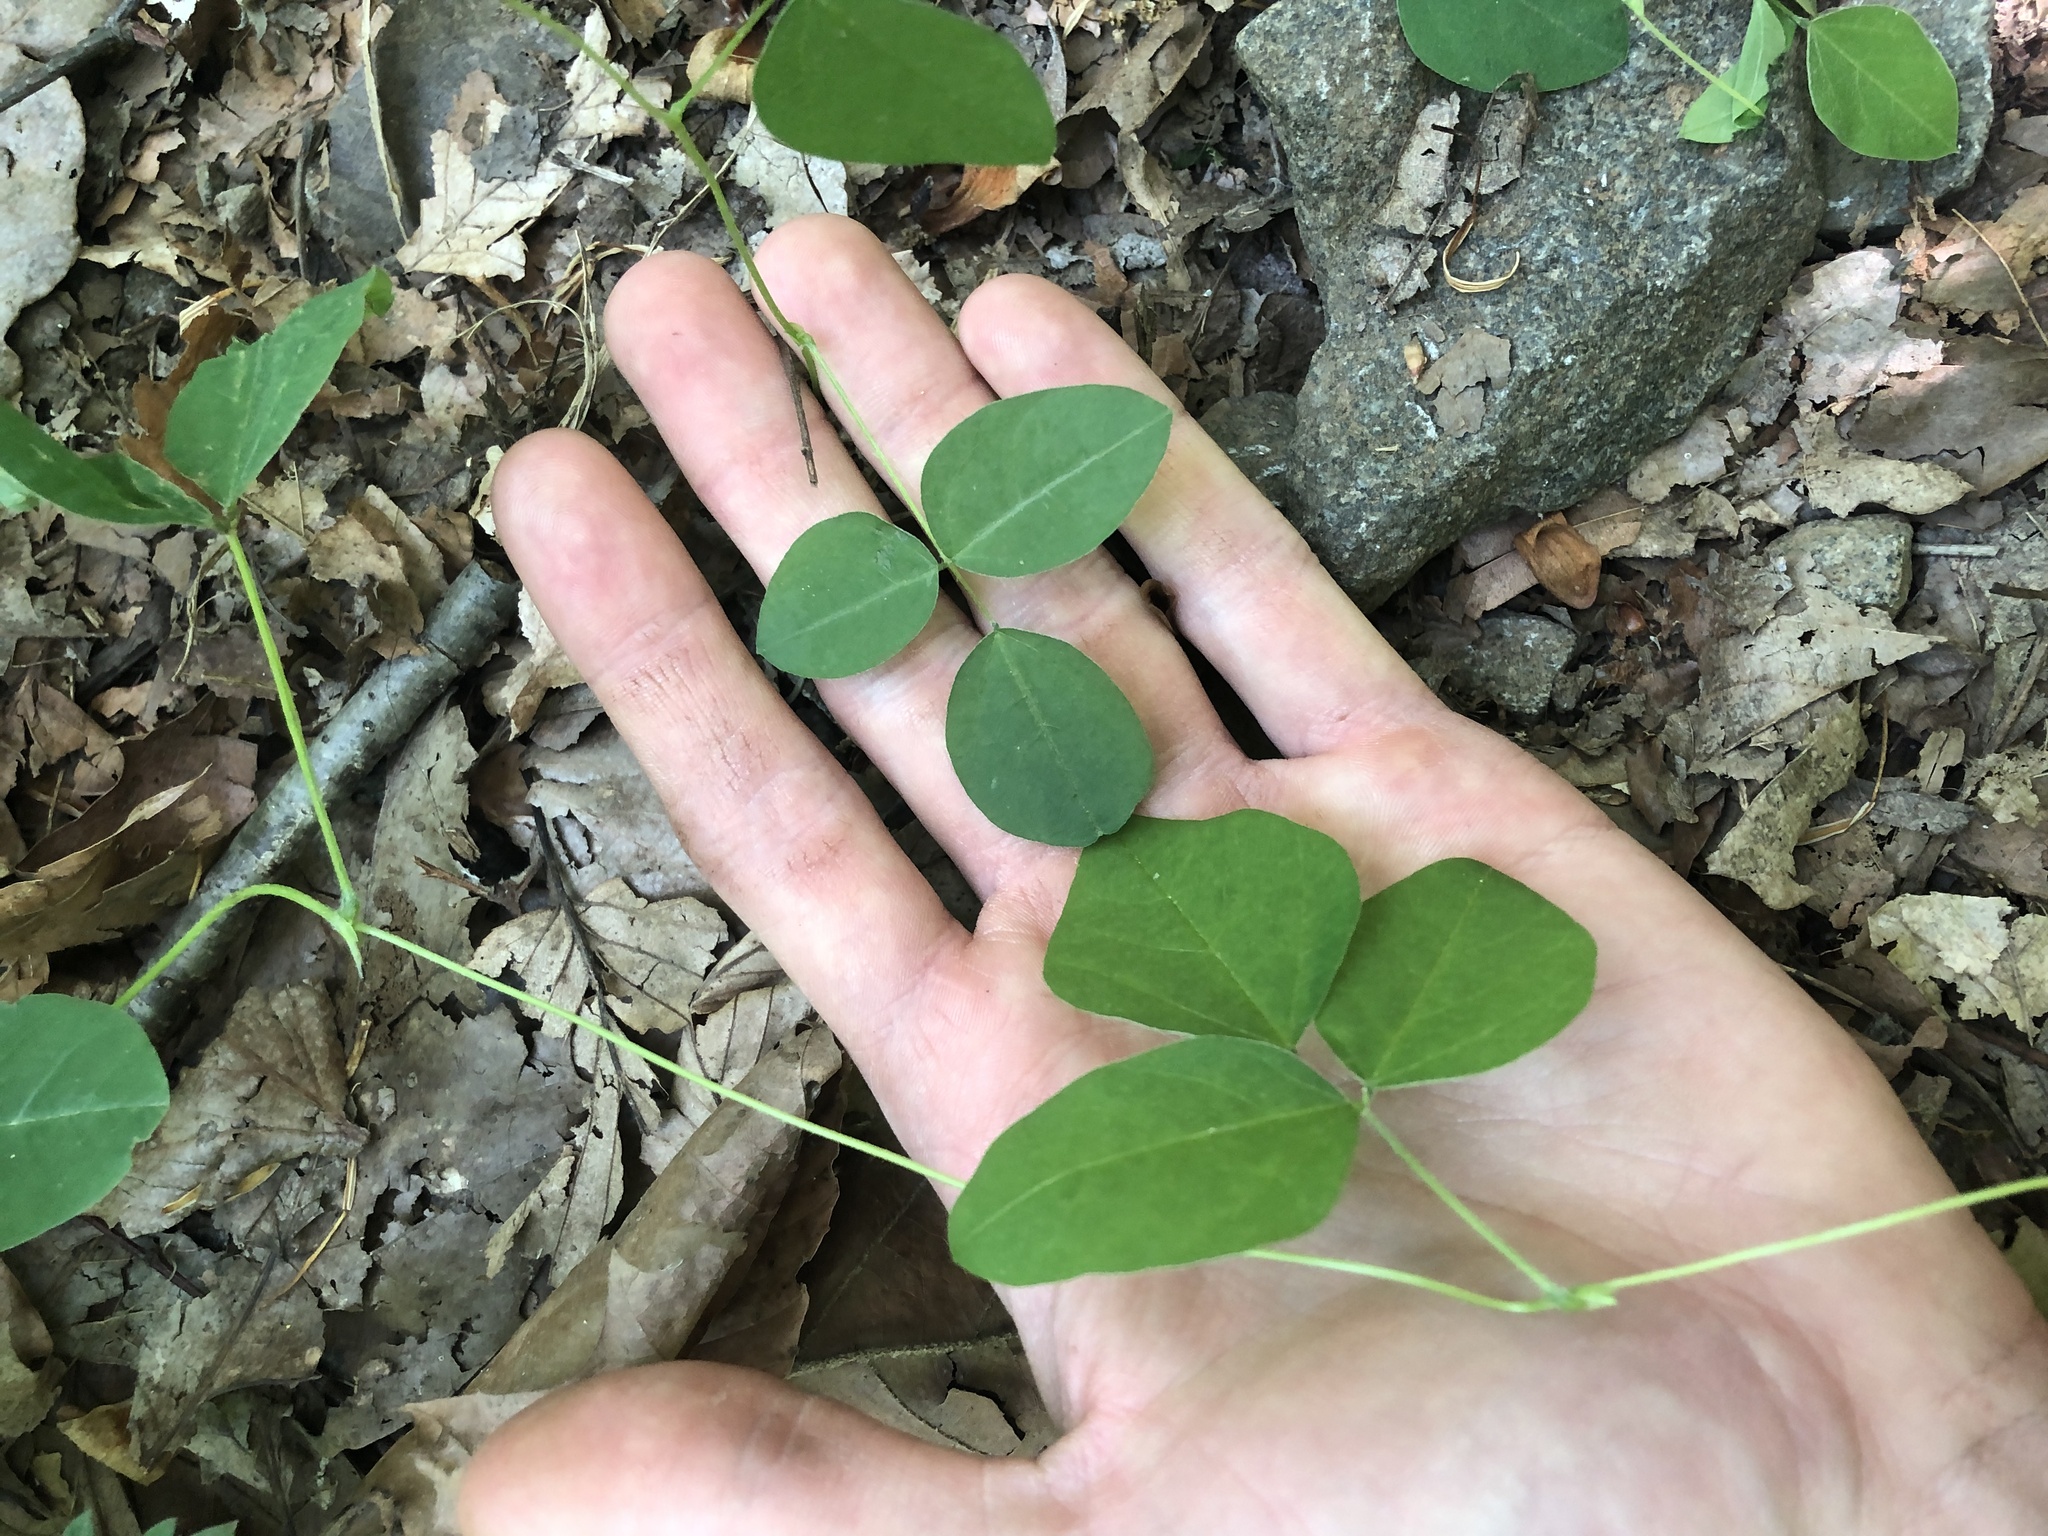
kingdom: Plantae
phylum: Tracheophyta
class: Magnoliopsida
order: Fabales
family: Fabaceae
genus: Amphicarpaea
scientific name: Amphicarpaea bracteata
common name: American hog peanut
